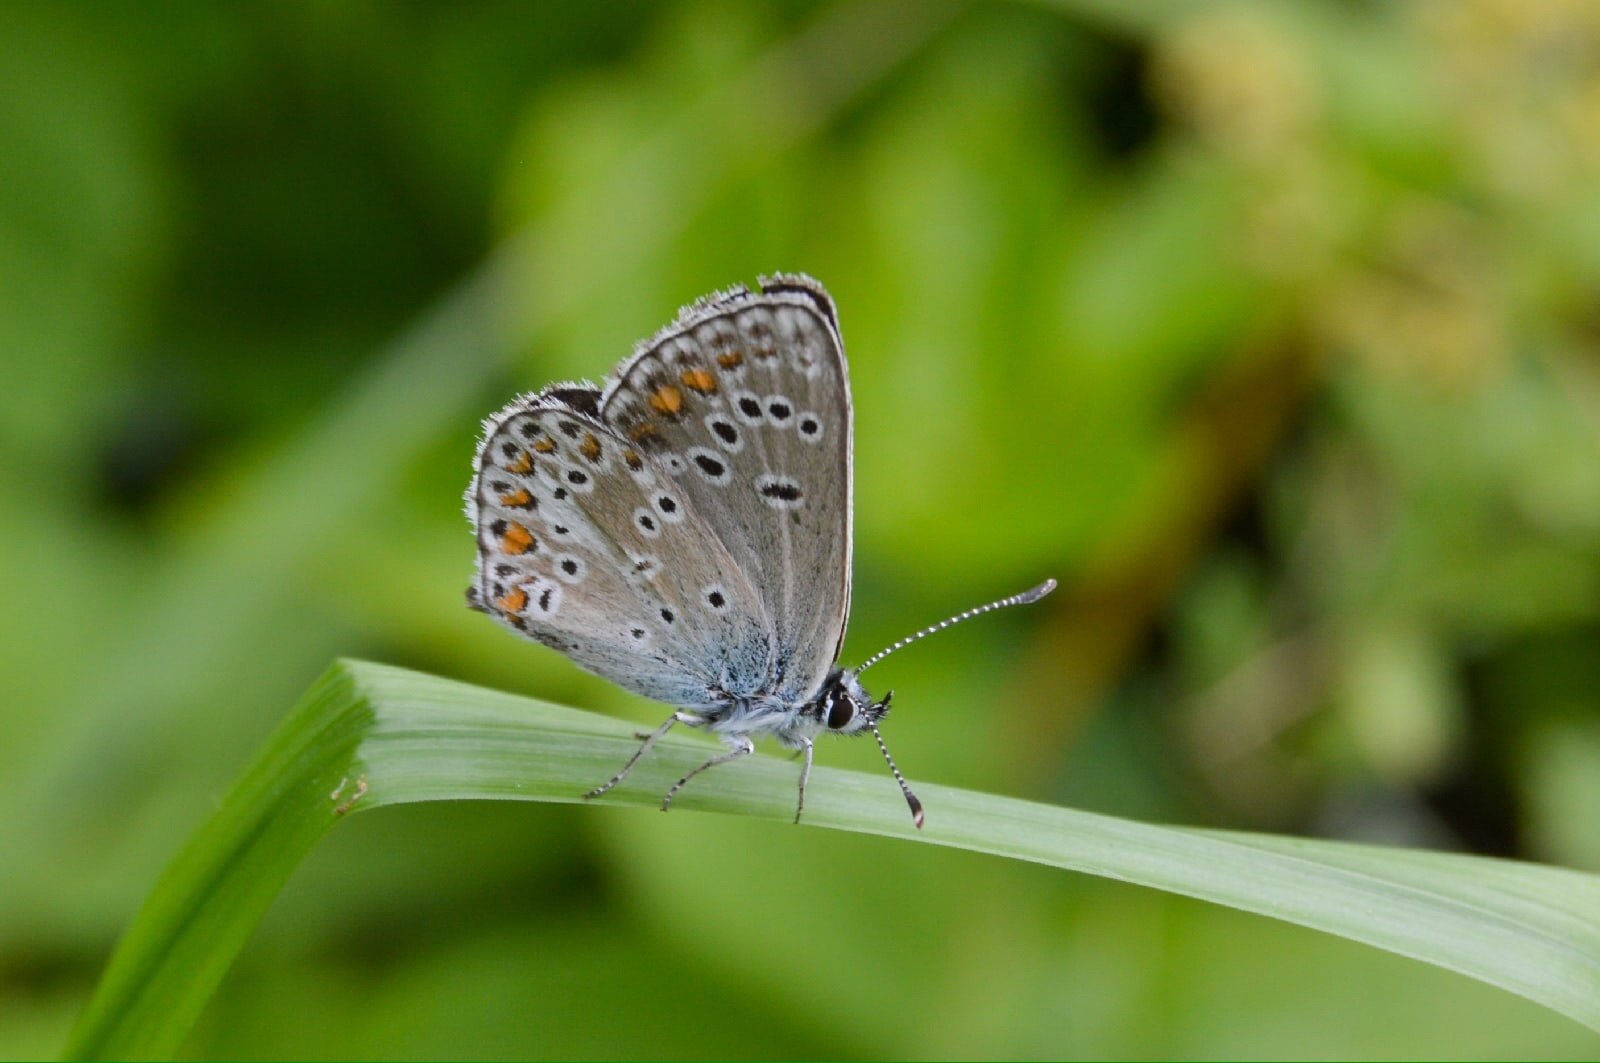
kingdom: Animalia
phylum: Arthropoda
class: Insecta
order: Lepidoptera
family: Lycaenidae
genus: Aricia
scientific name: Aricia artaxerxes
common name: Northern brown argus
